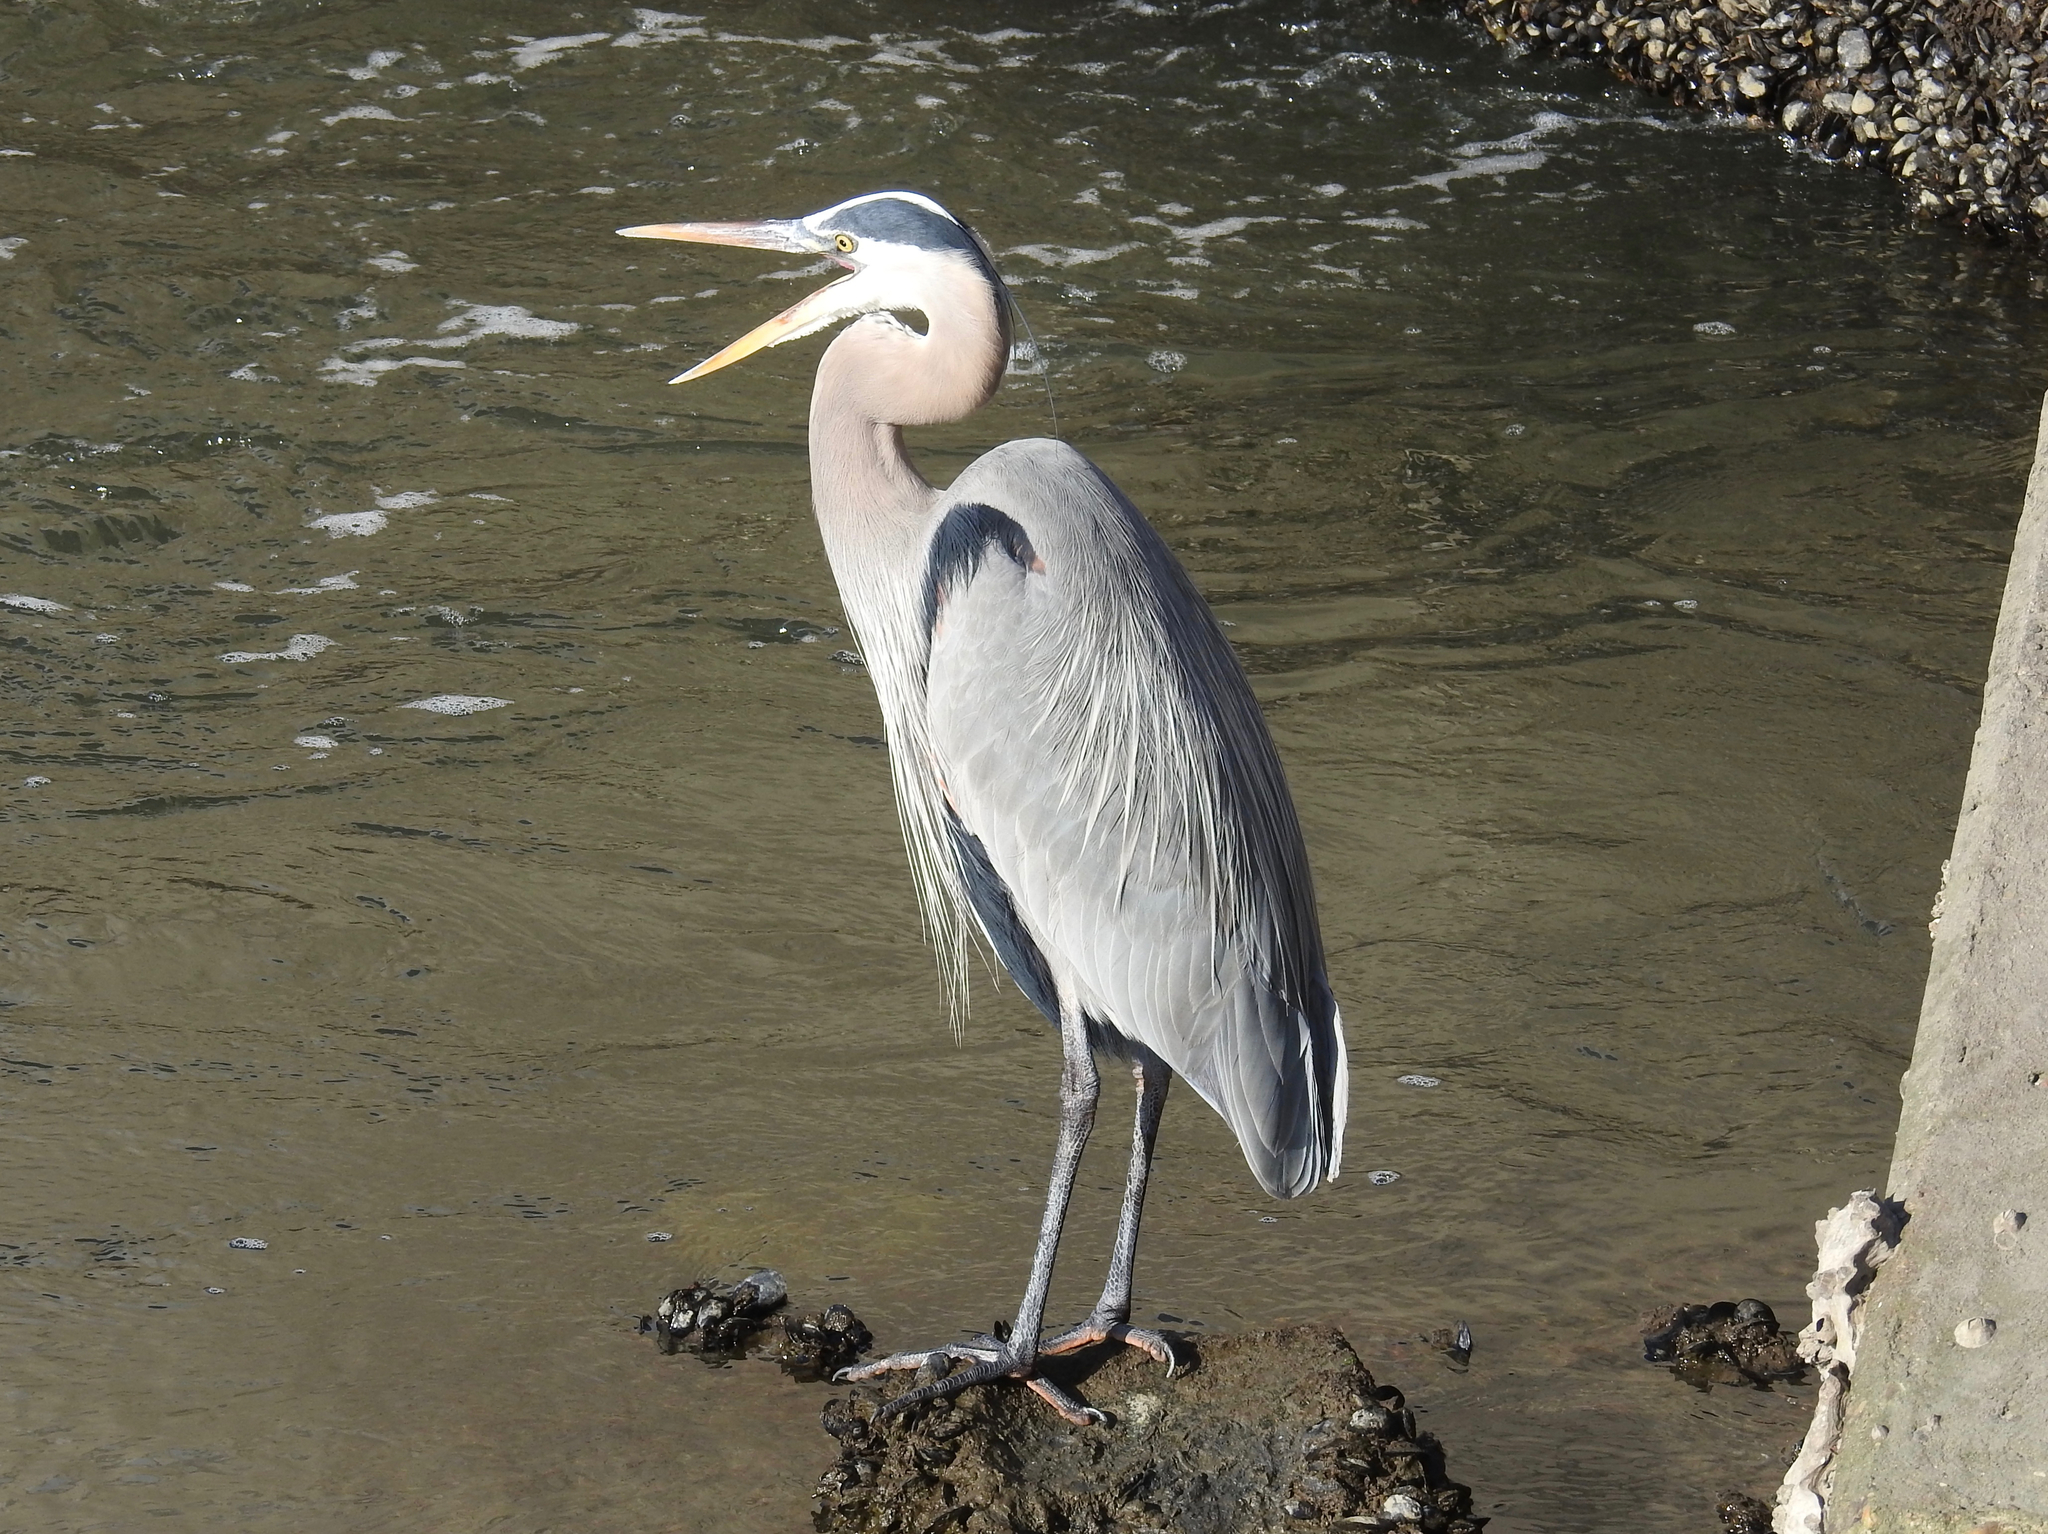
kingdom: Animalia
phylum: Chordata
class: Aves
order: Pelecaniformes
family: Ardeidae
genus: Ardea
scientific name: Ardea herodias
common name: Great blue heron
